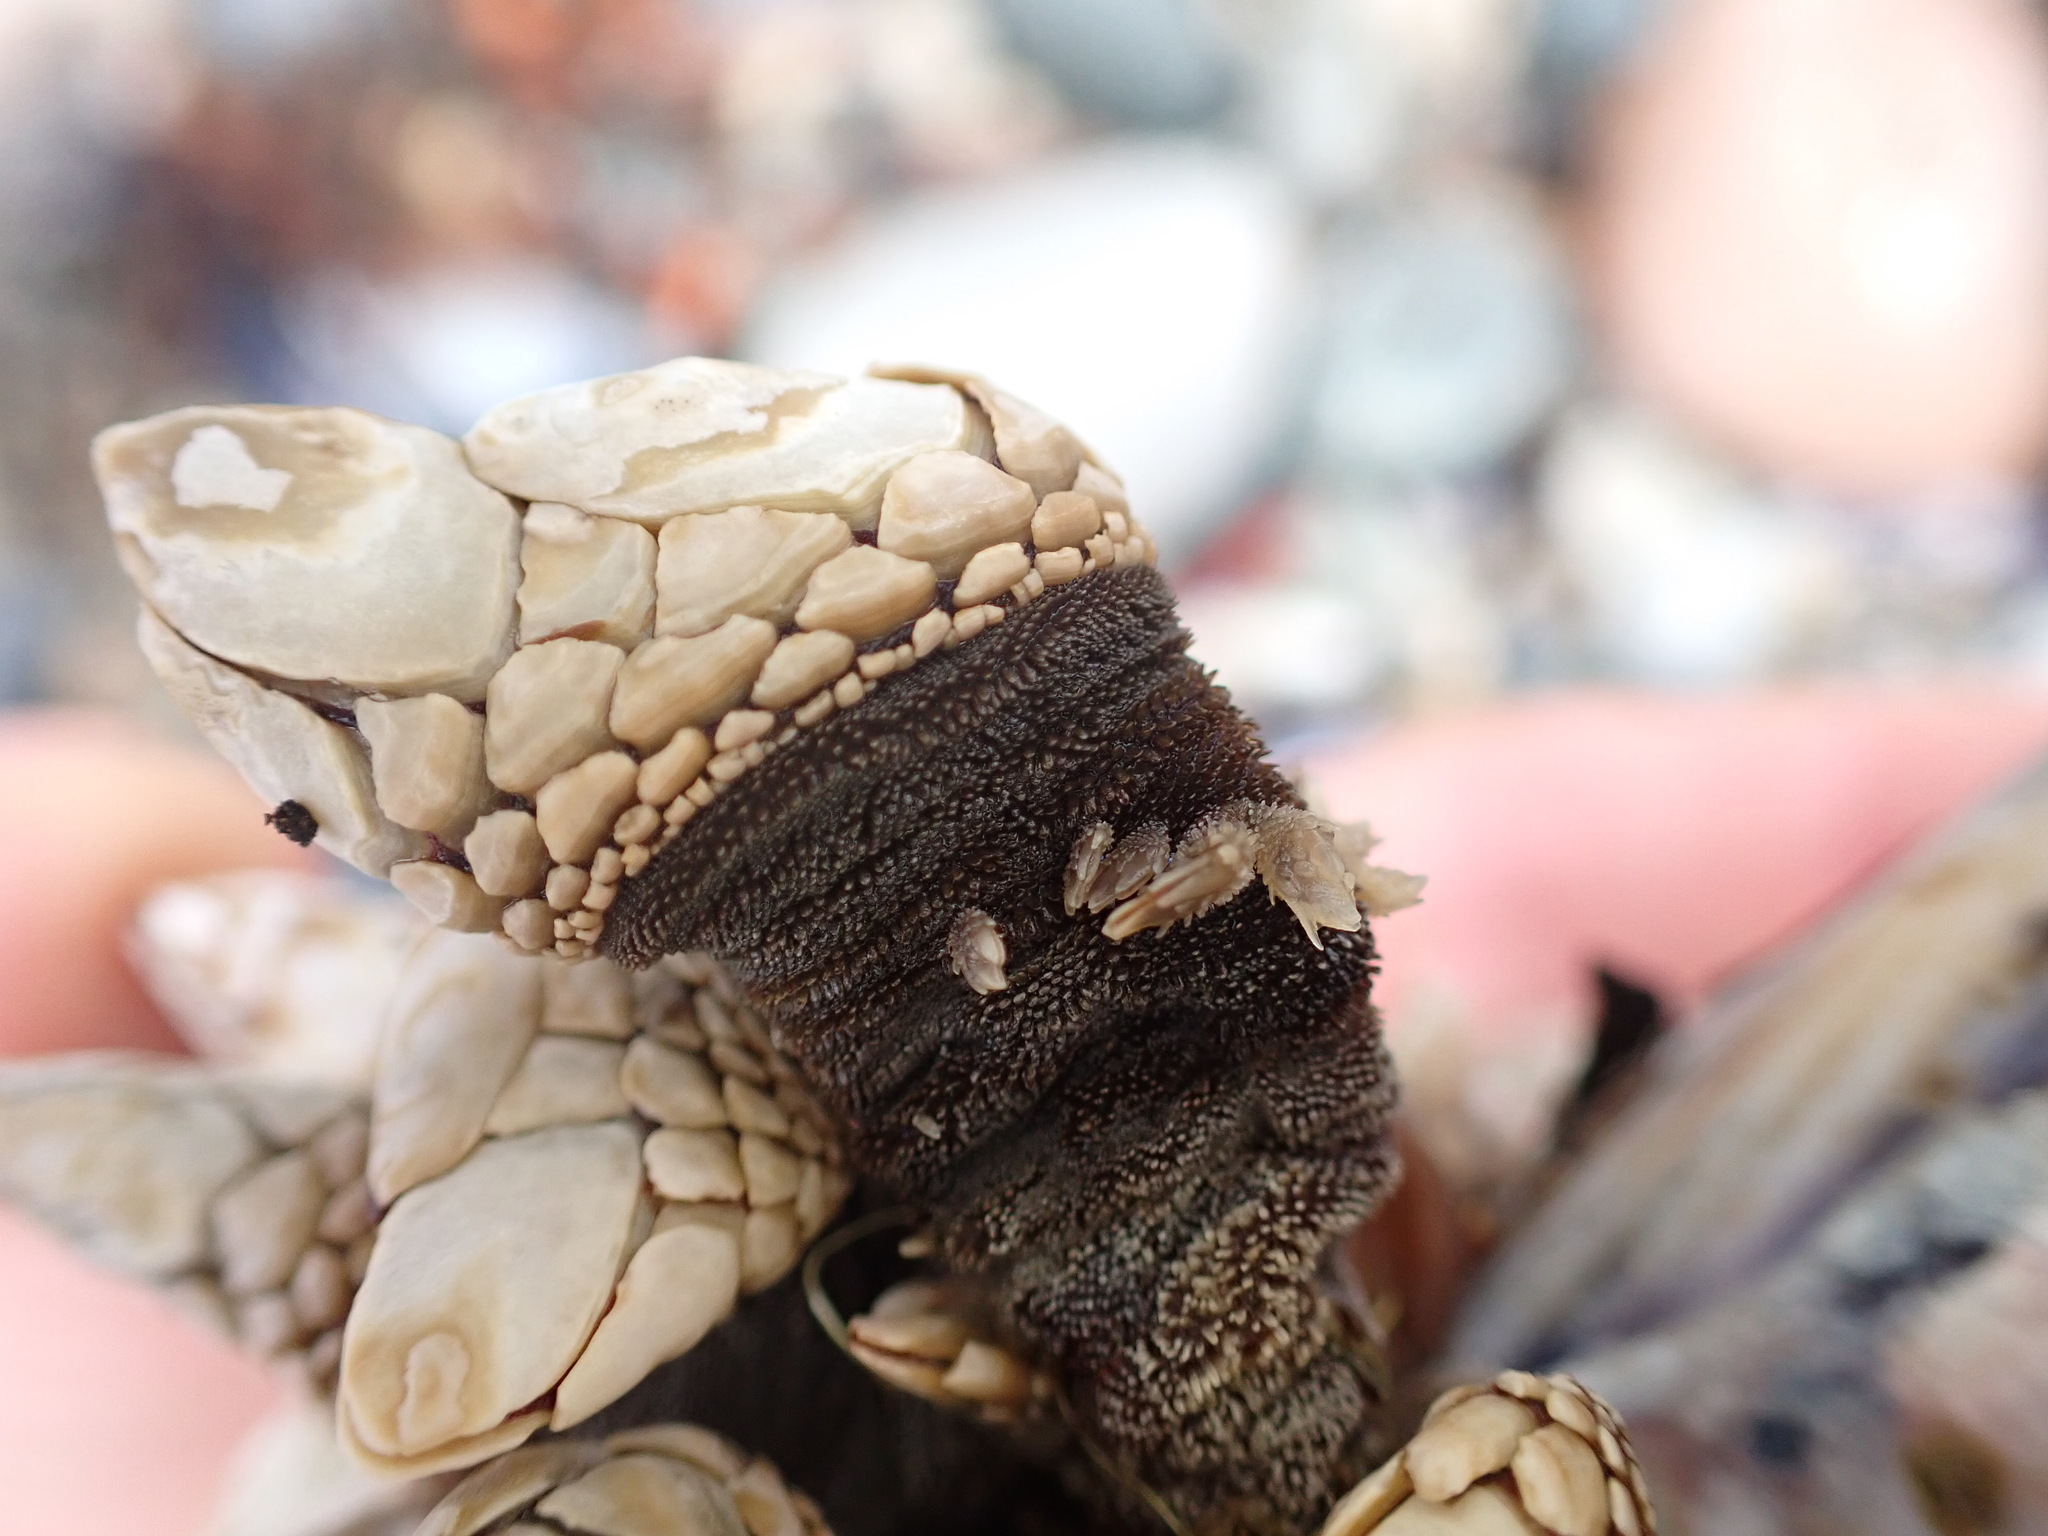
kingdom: Animalia
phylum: Arthropoda
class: Maxillopoda
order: Pedunculata
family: Pollicipedidae
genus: Pollicipes
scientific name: Pollicipes polymerus
